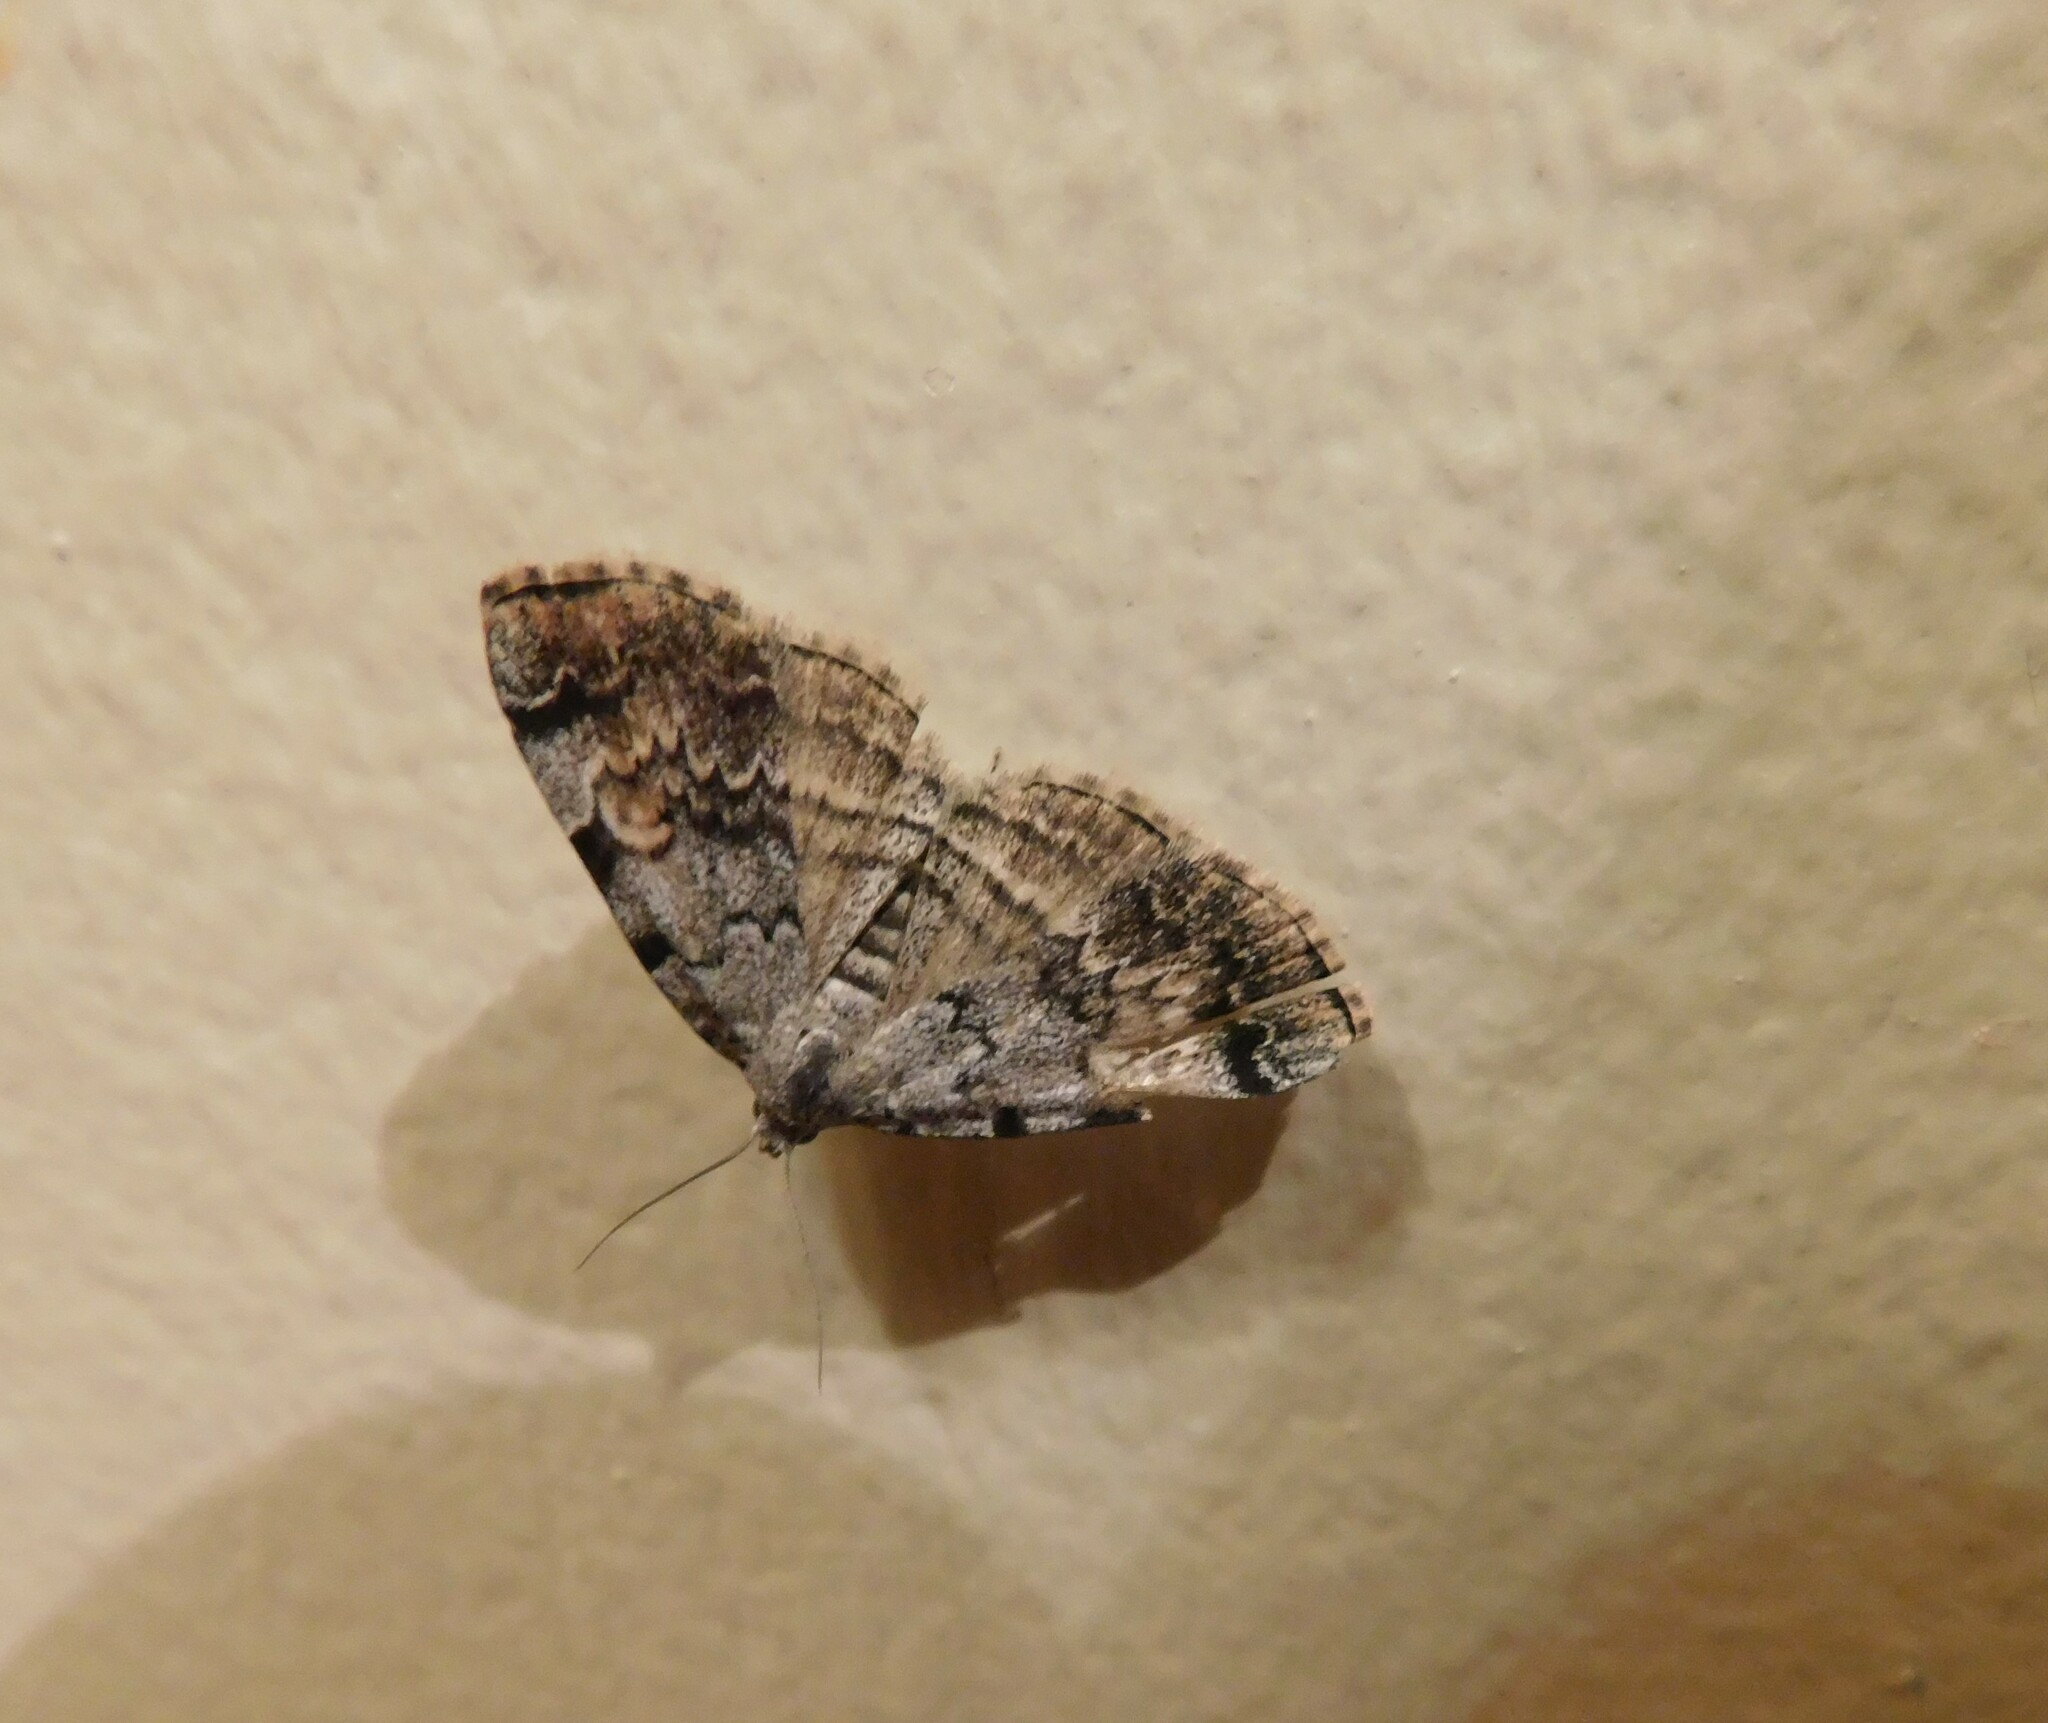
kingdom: Animalia
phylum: Arthropoda
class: Insecta
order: Lepidoptera
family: Erebidae
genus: Idia
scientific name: Idia americalis
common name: American idia moth
